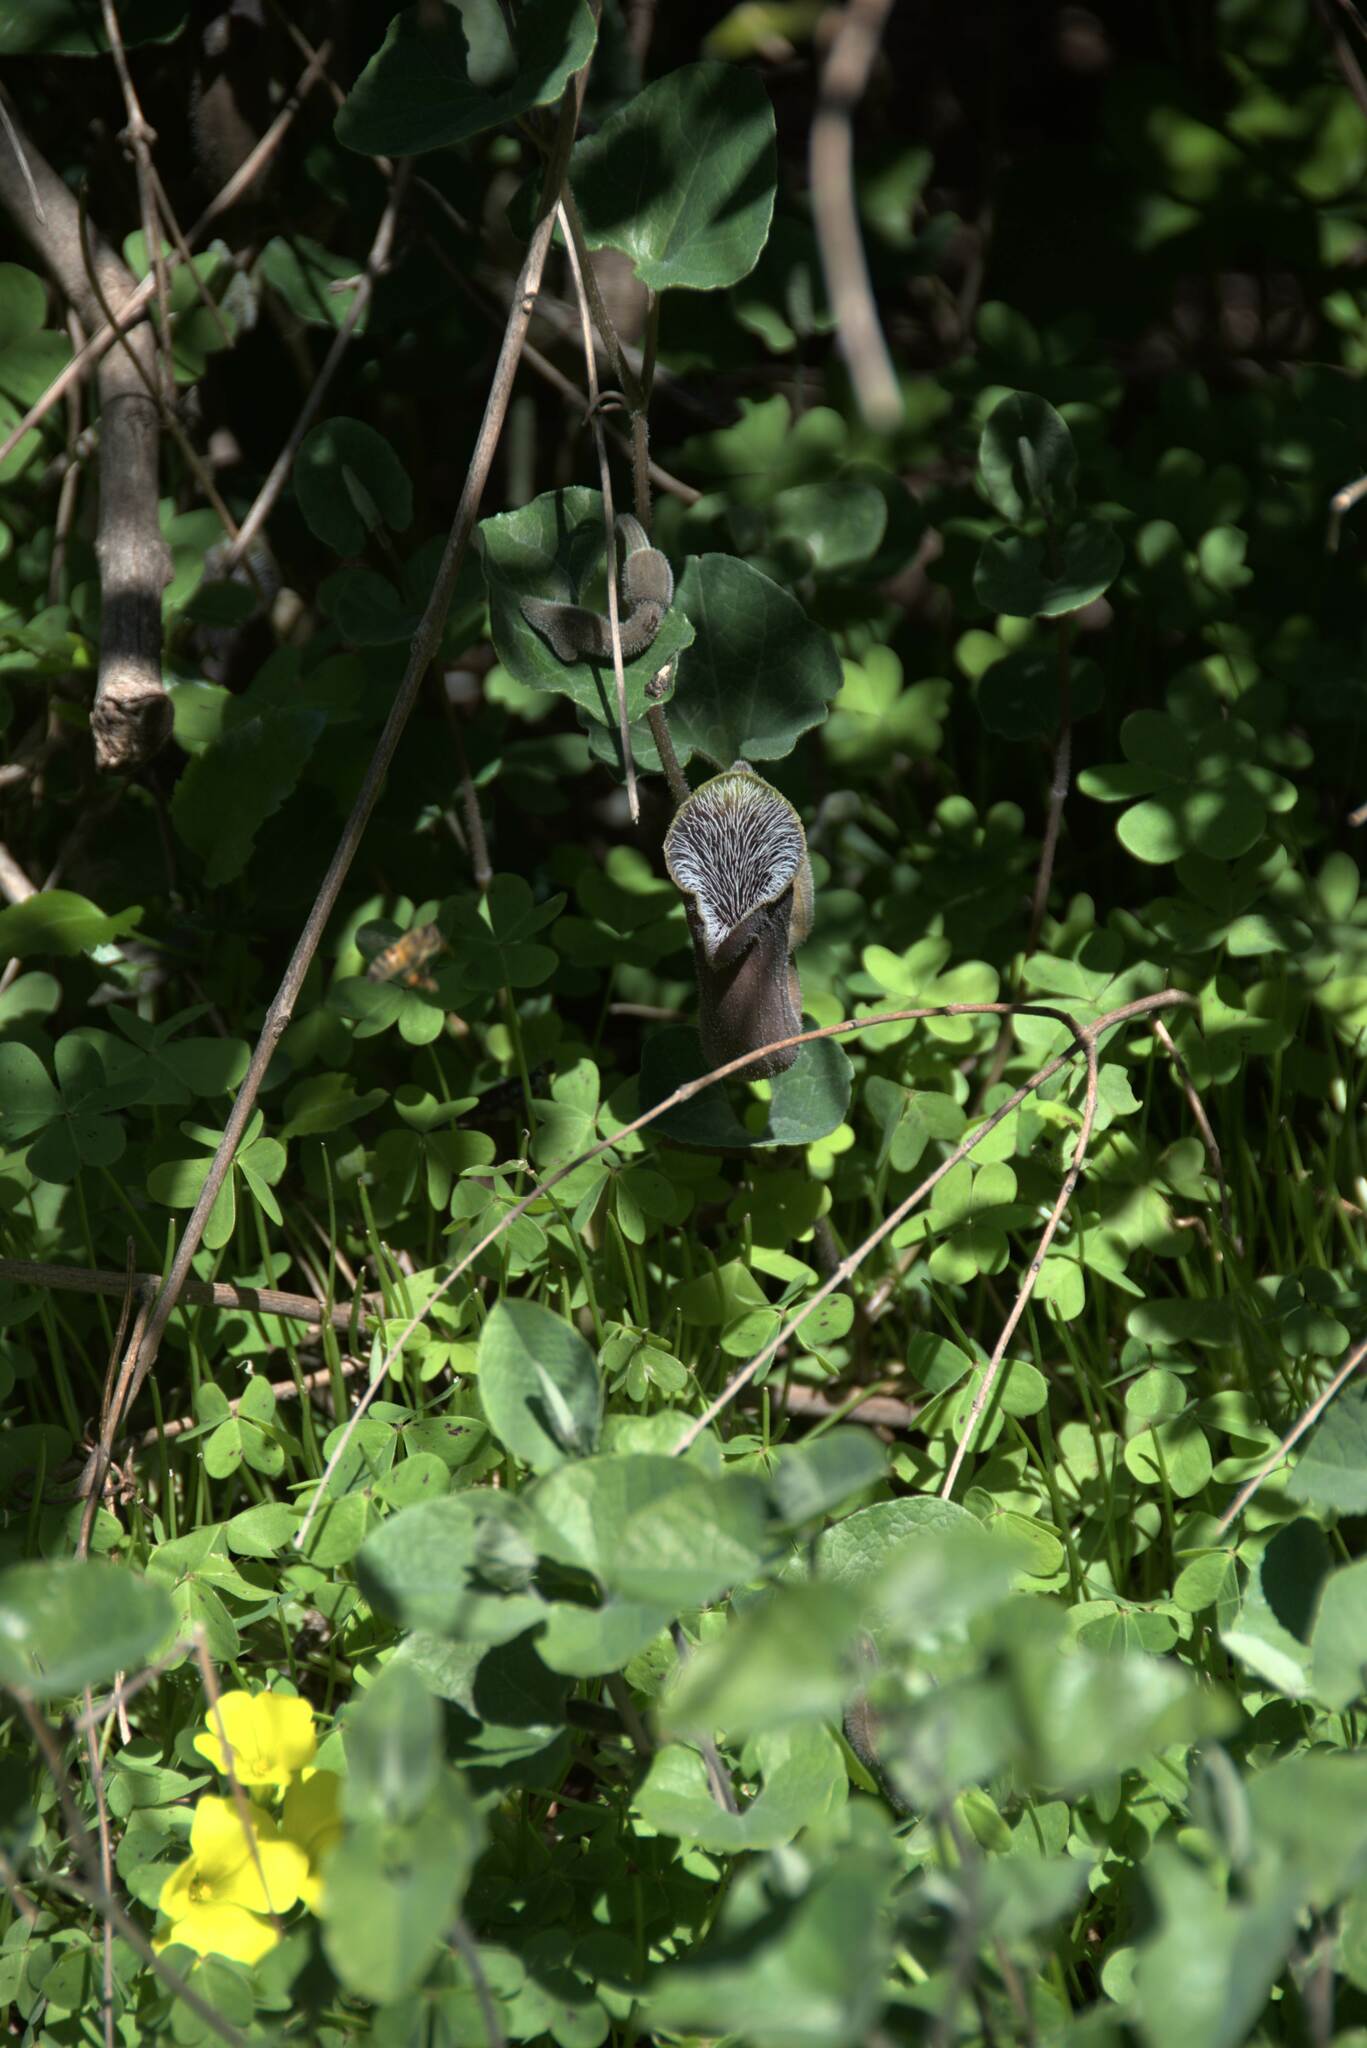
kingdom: Plantae
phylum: Tracheophyta
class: Magnoliopsida
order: Piperales
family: Aristolochiaceae
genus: Aristolochia
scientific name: Aristolochia cretica
